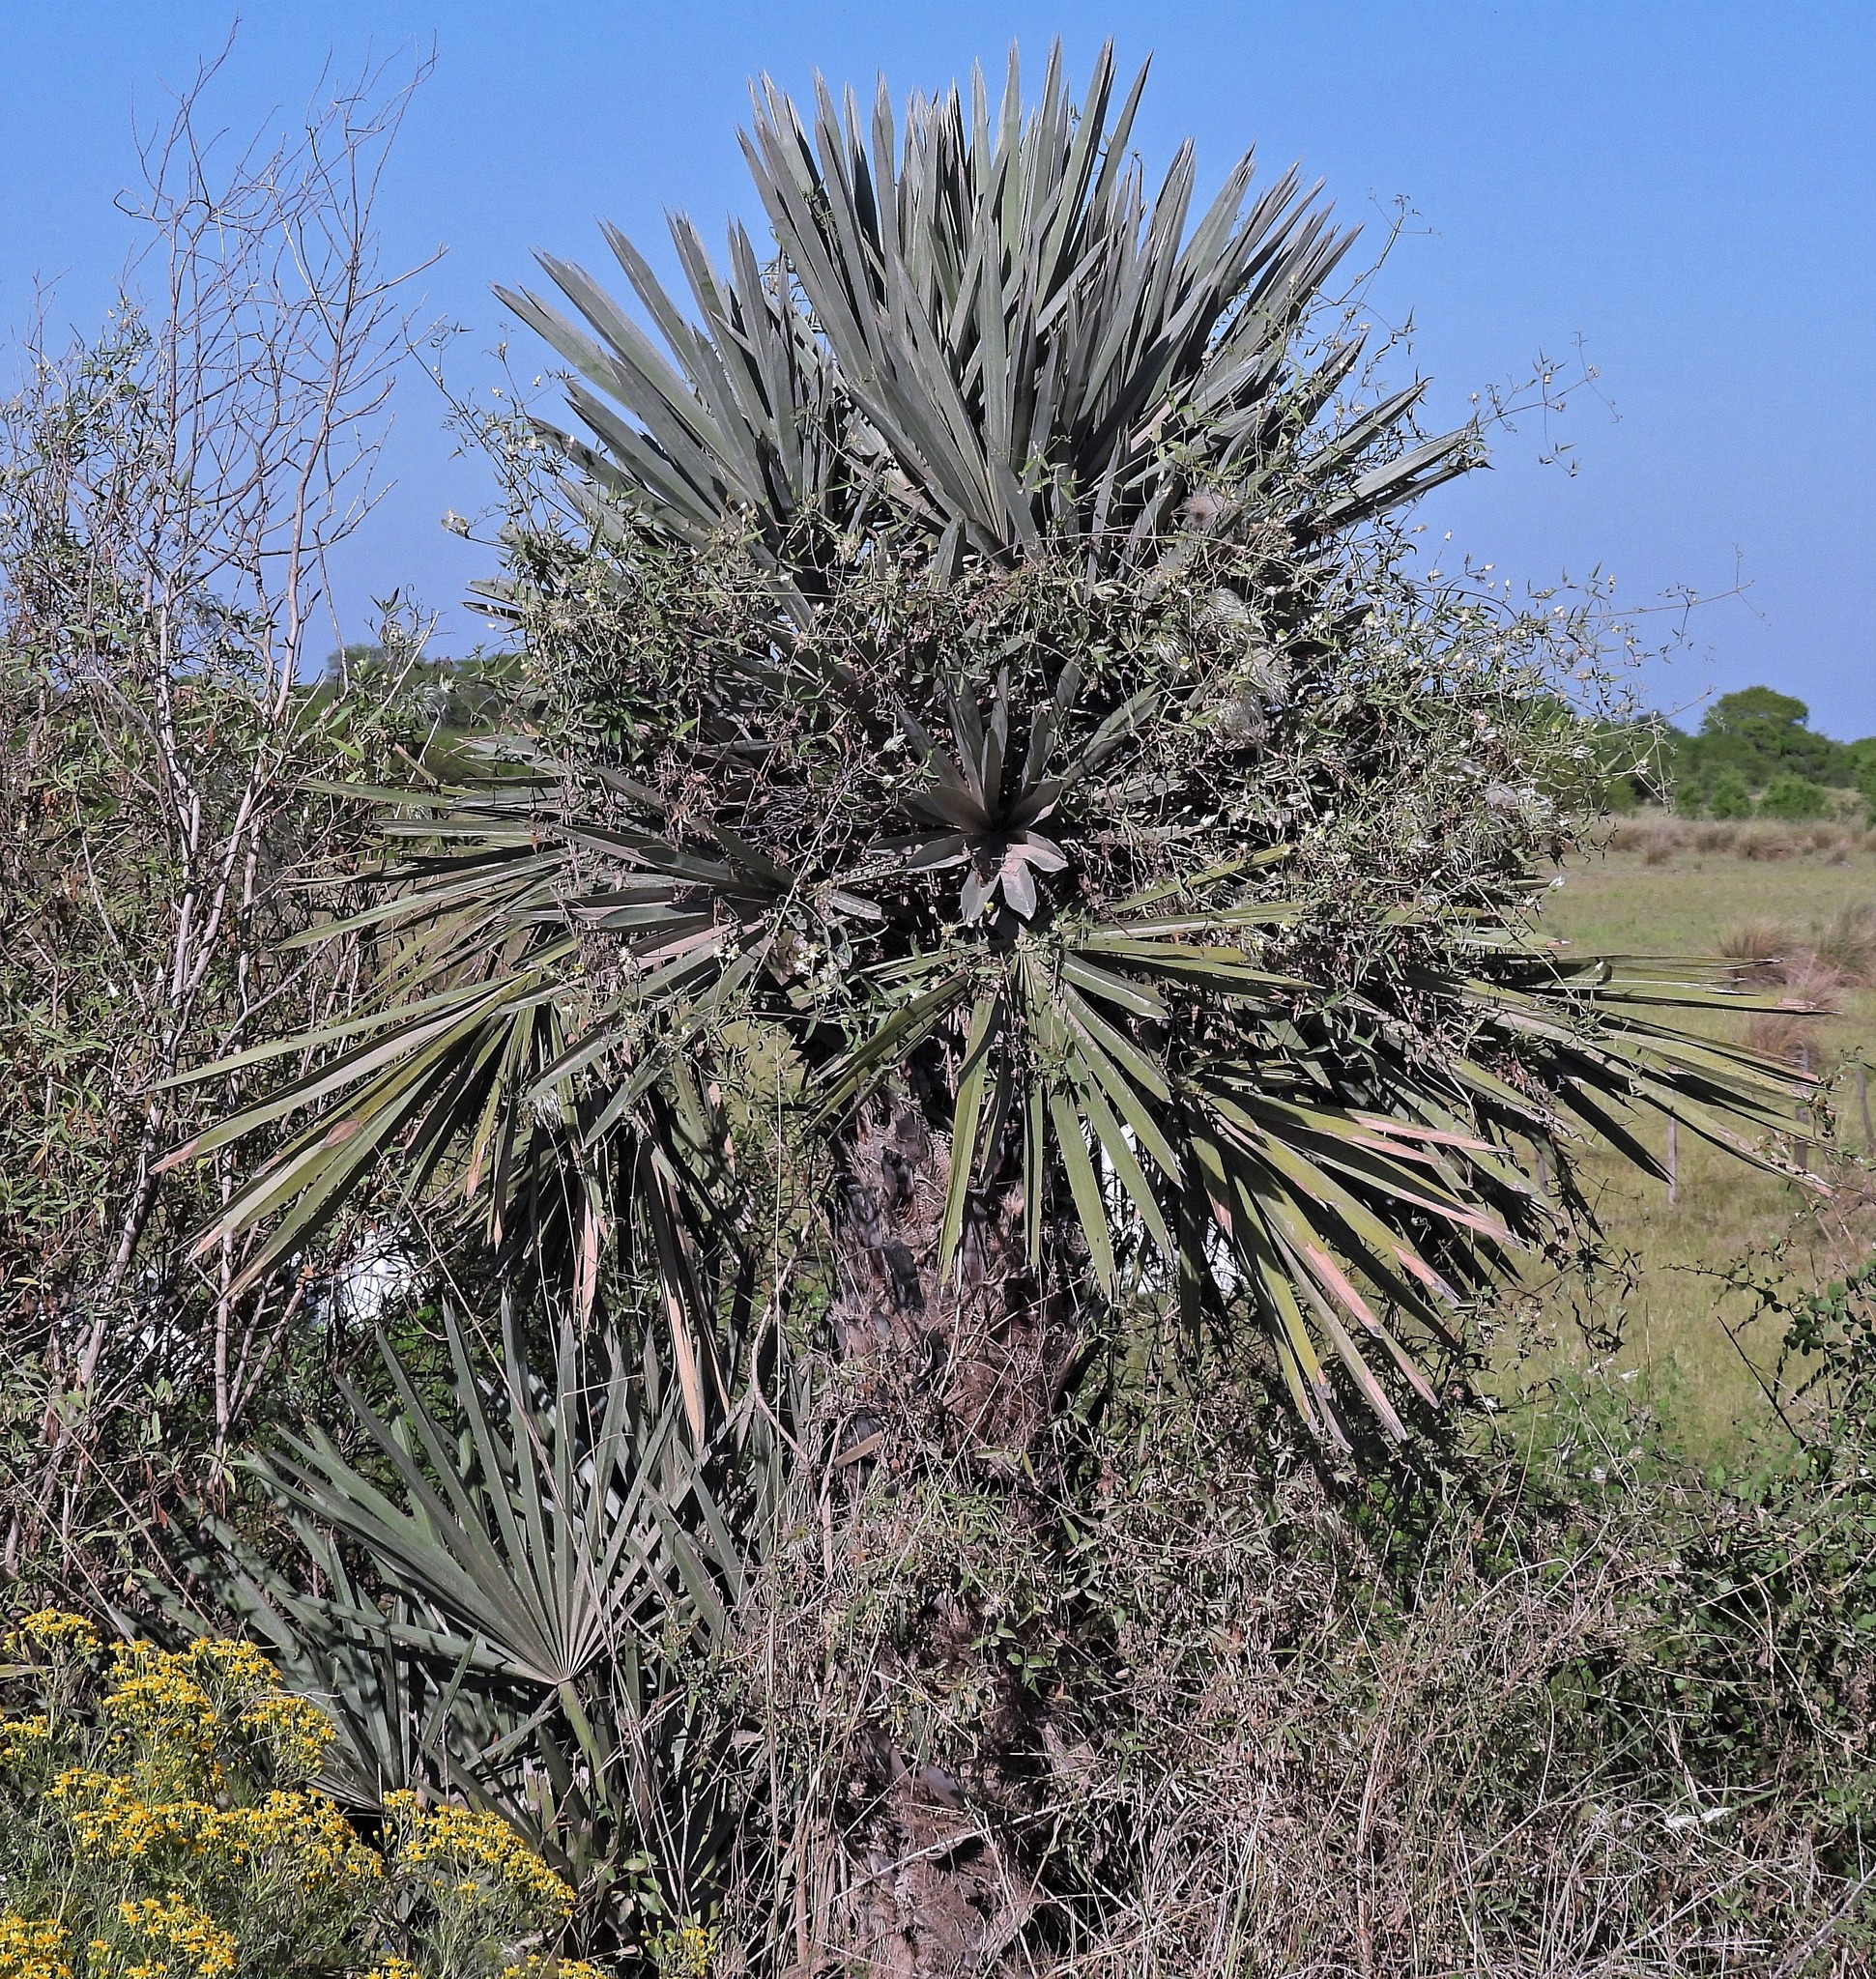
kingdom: Plantae
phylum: Tracheophyta
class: Liliopsida
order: Arecales
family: Arecaceae
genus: Trithrinax
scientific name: Trithrinax campestris
